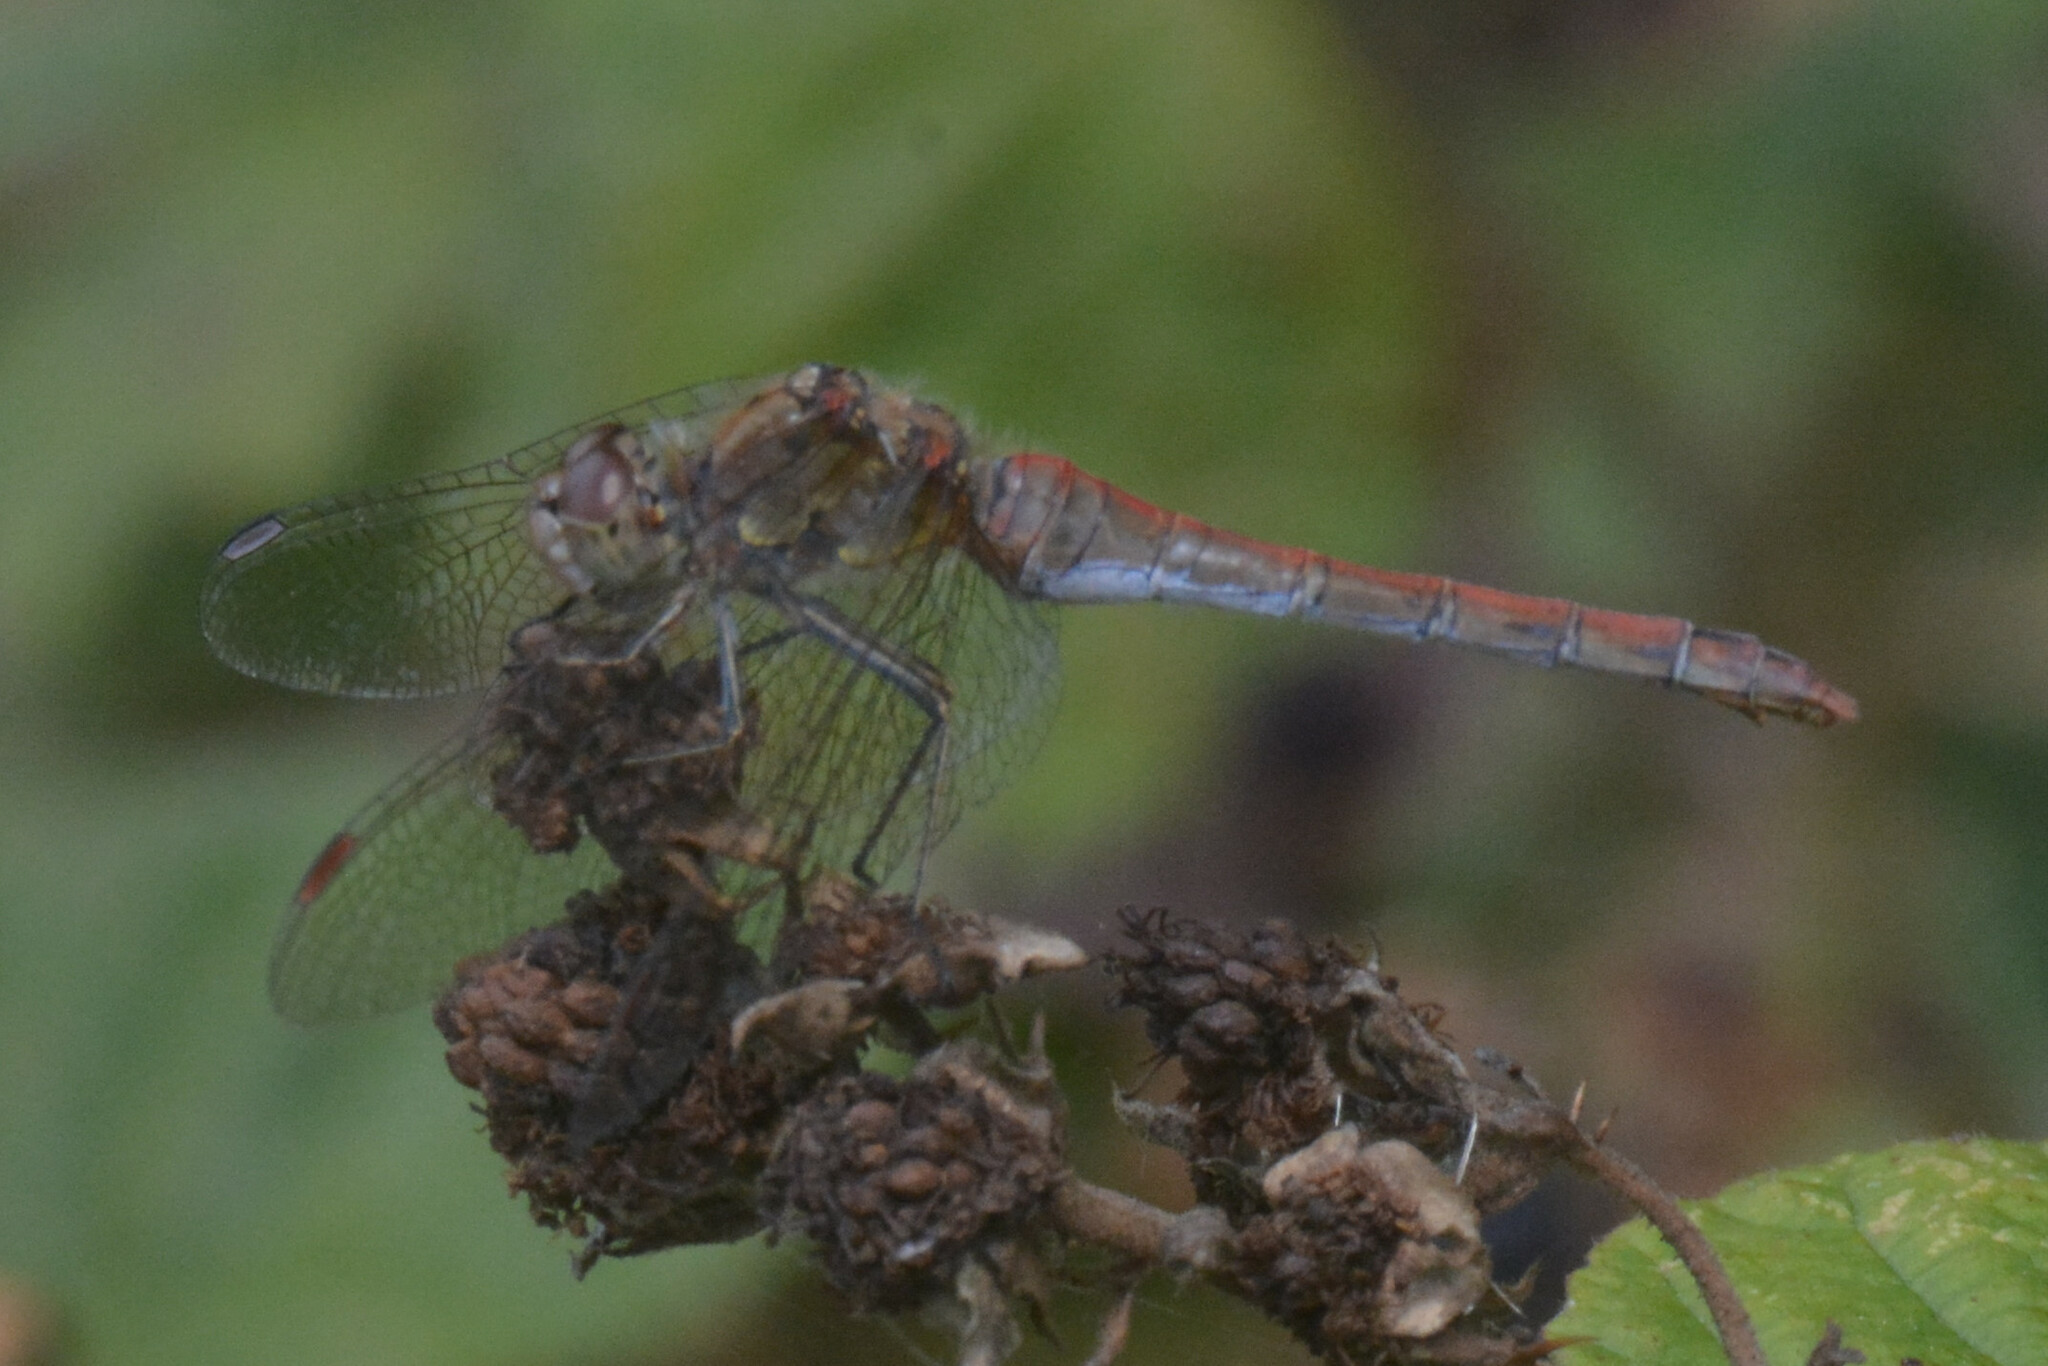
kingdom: Animalia
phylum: Arthropoda
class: Insecta
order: Odonata
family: Libellulidae
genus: Sympetrum
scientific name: Sympetrum striolatum
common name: Common darter
